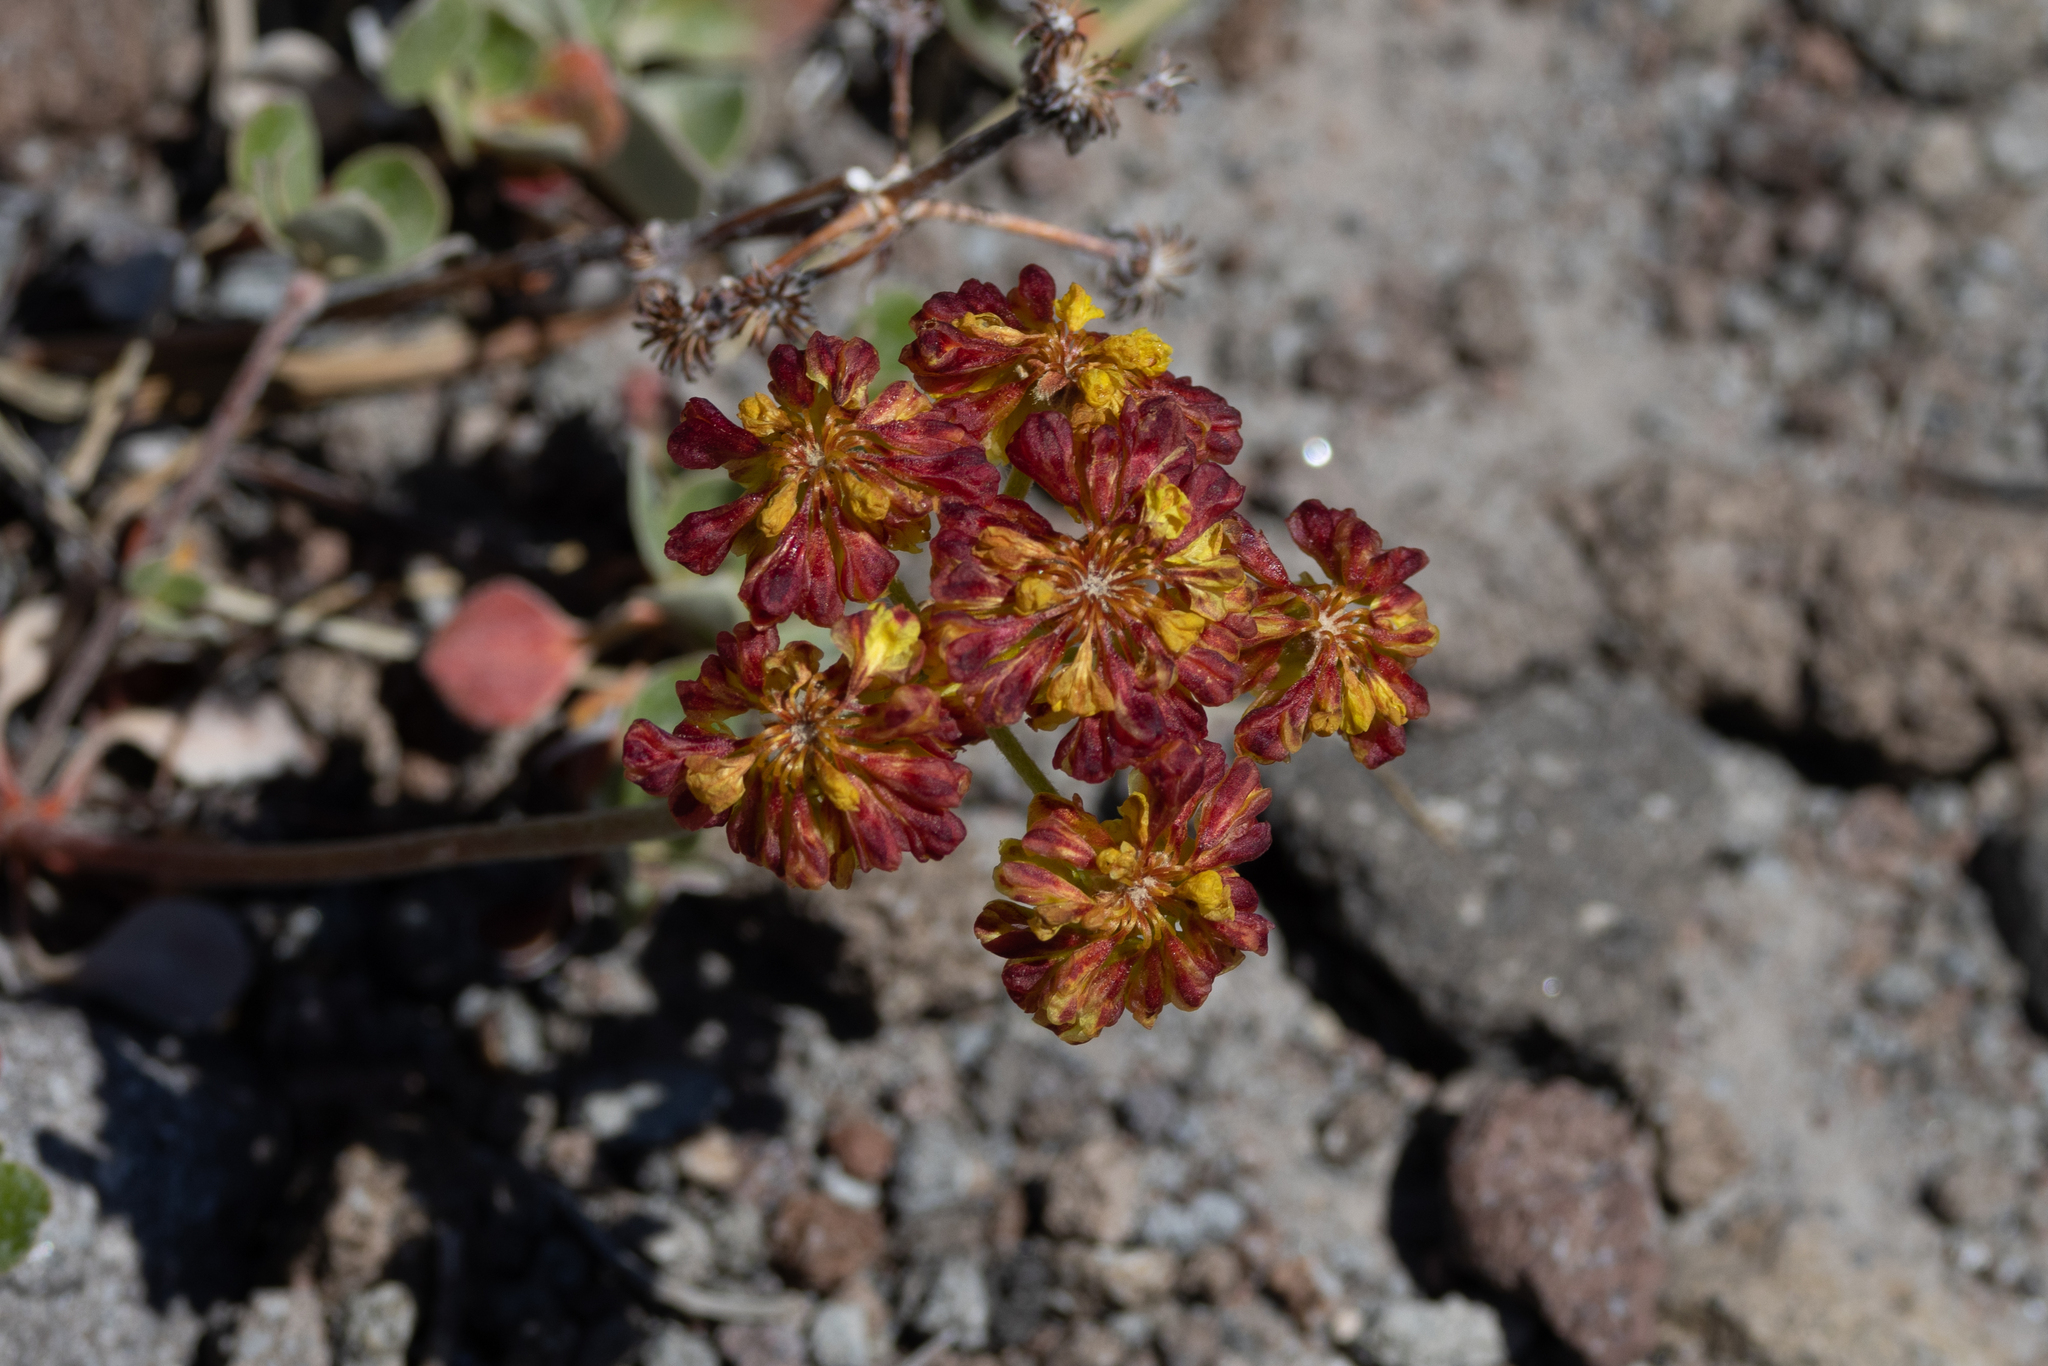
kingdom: Plantae
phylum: Tracheophyta
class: Magnoliopsida
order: Caryophyllales
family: Polygonaceae
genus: Eriogonum
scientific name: Eriogonum umbellatum
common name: Sulfur-buckwheat
